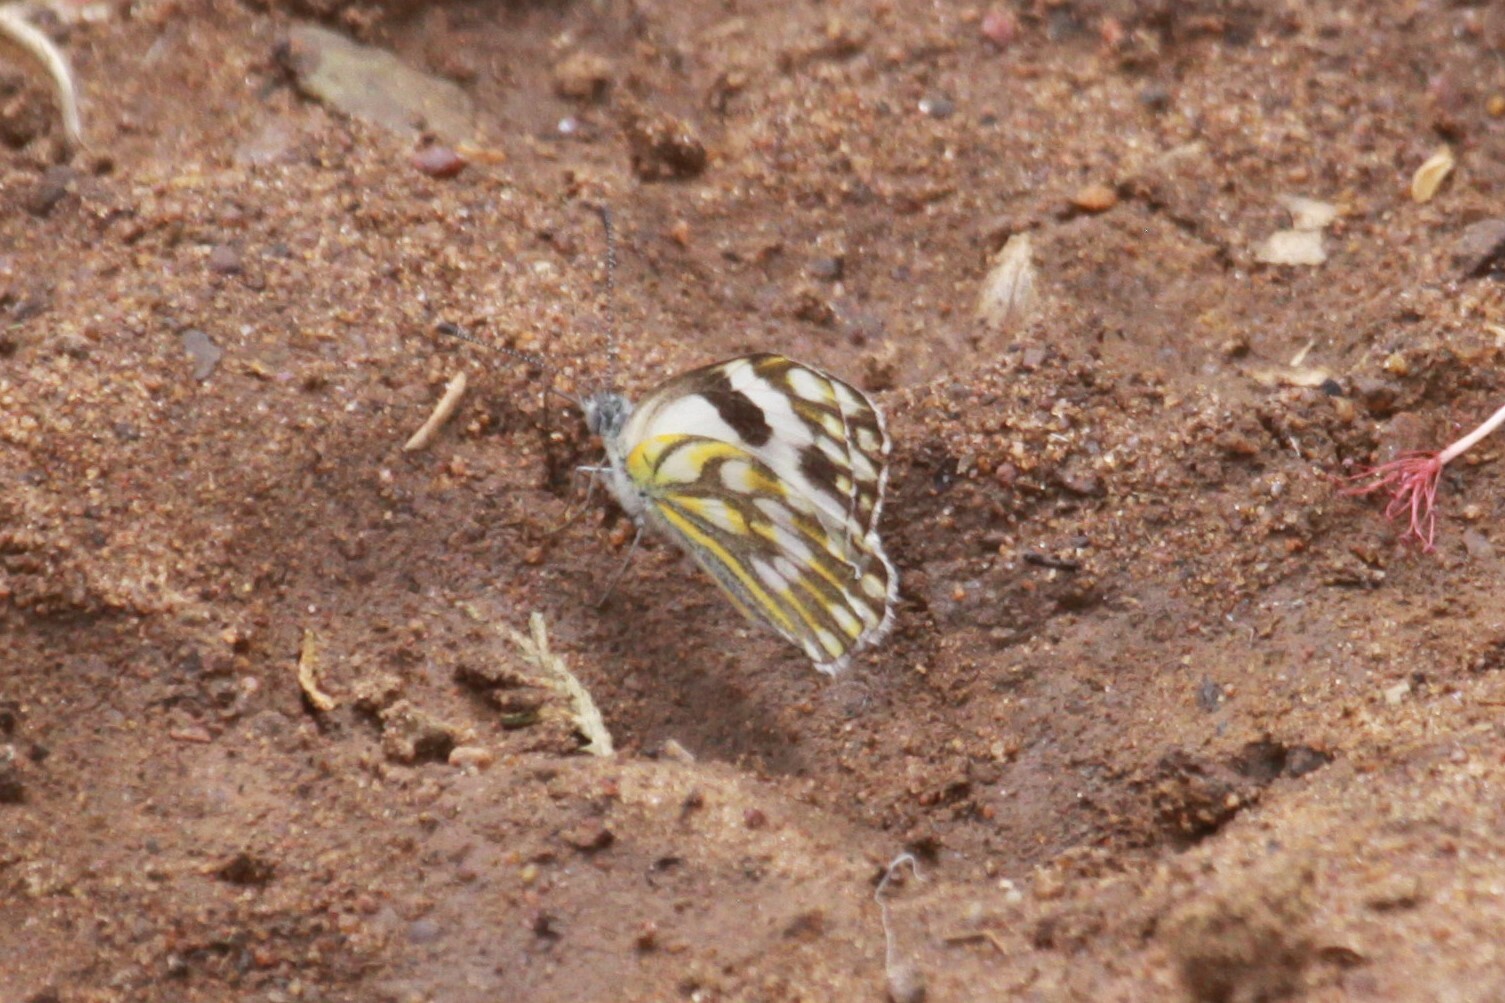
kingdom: Animalia
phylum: Arthropoda
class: Insecta
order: Lepidoptera
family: Pieridae
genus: Pontia
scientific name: Pontia helice
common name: Meadow white
